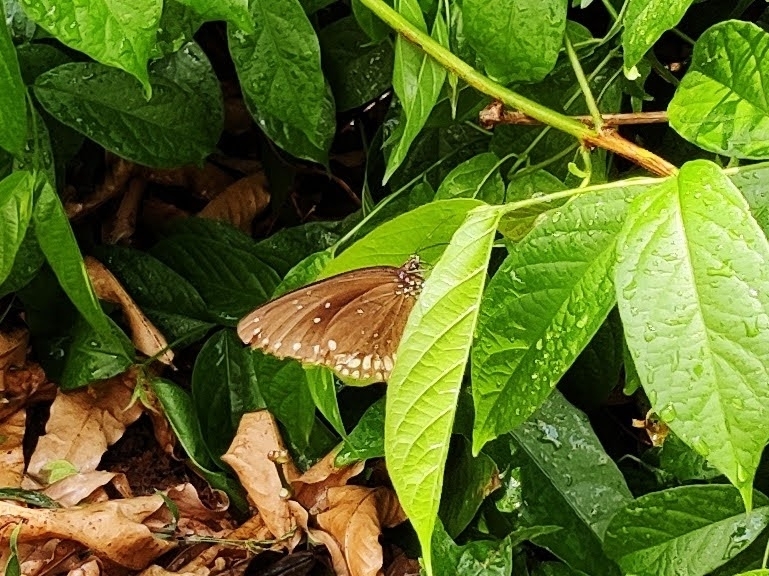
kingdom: Animalia
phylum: Arthropoda
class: Insecta
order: Lepidoptera
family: Nymphalidae
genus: Euploea
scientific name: Euploea sylvester
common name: Double-branded crow butterfly
